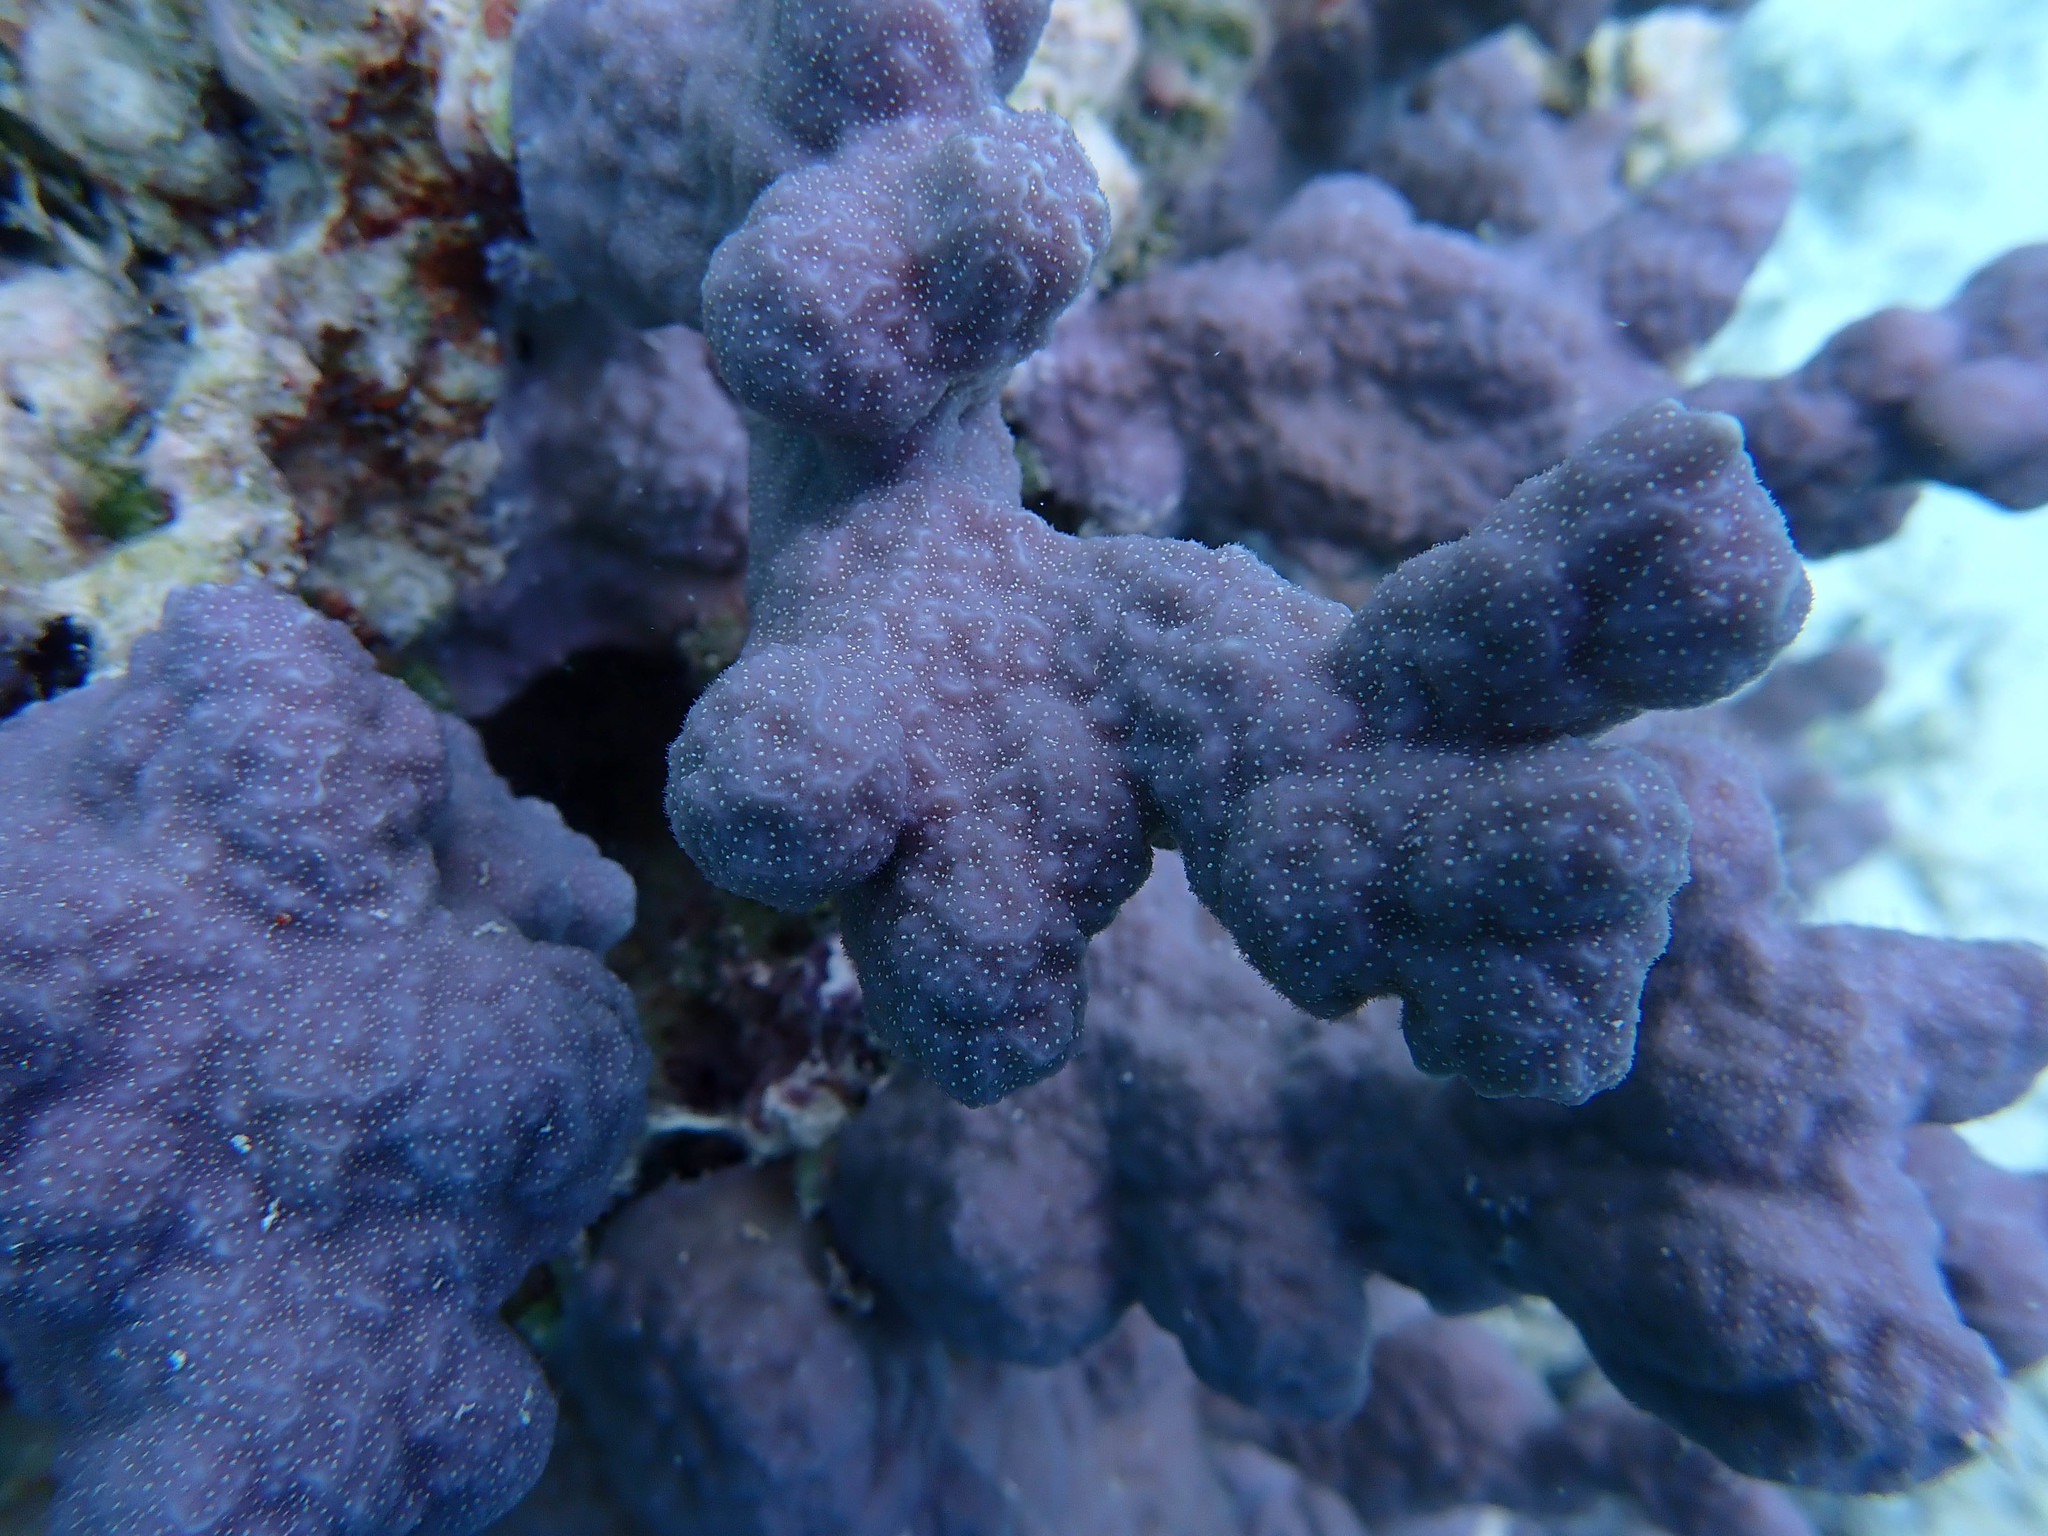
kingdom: Animalia
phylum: Cnidaria
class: Anthozoa
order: Scleractinia
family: Poritidae
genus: Porites
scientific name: Porites rus
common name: Hump coral
